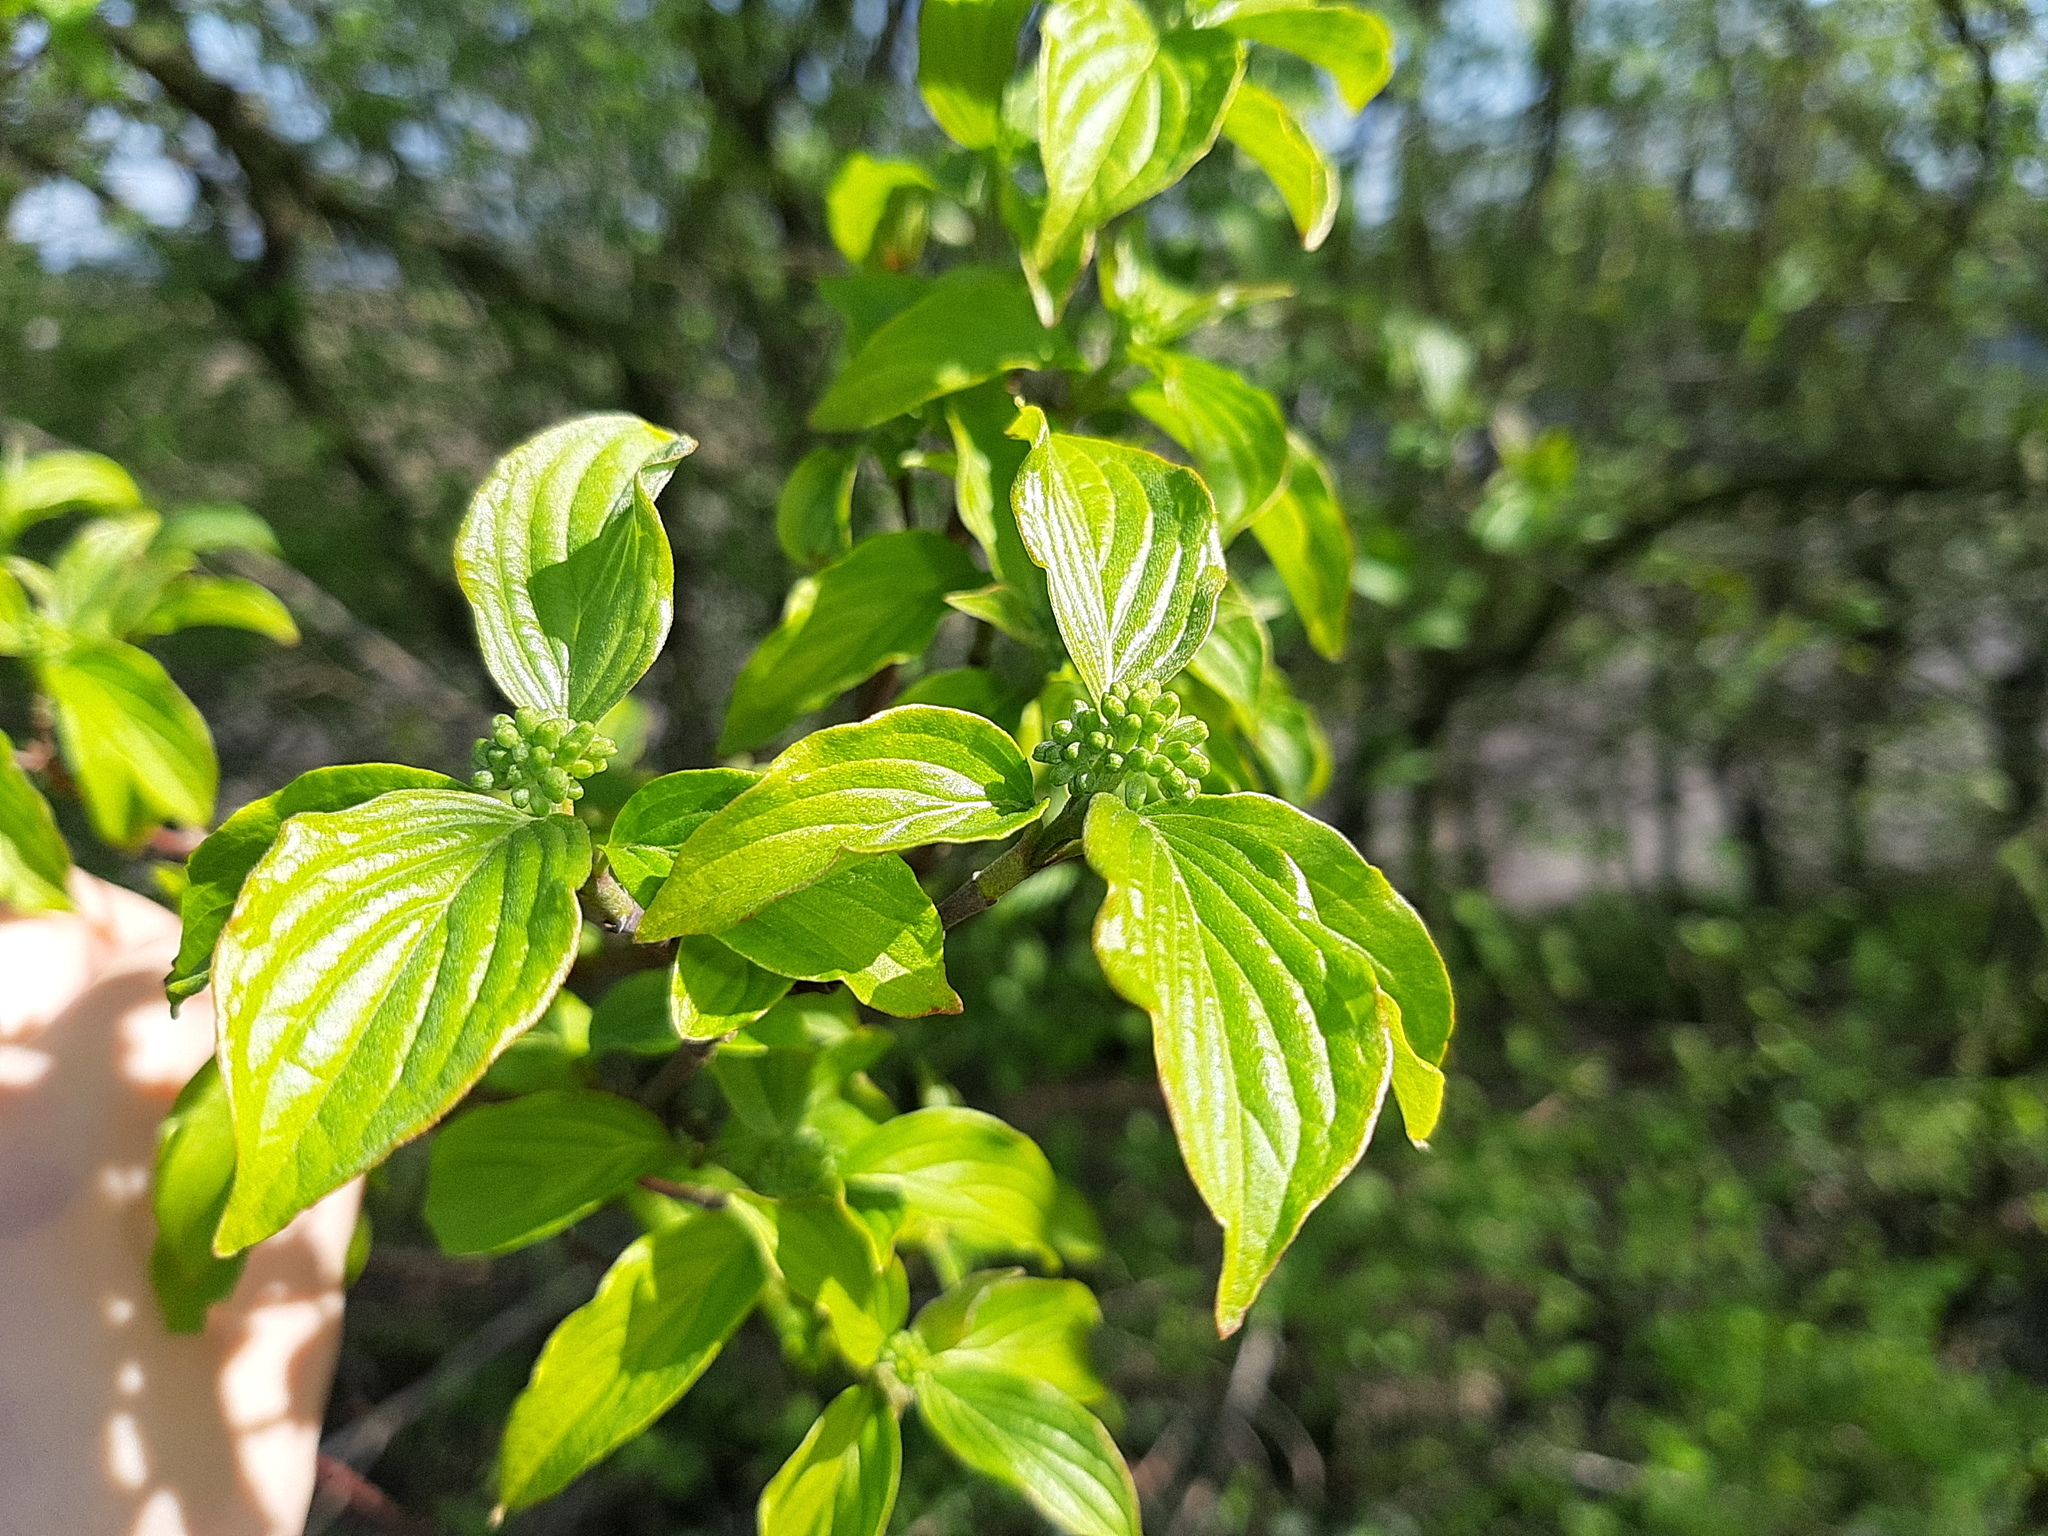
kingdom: Plantae
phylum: Tracheophyta
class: Magnoliopsida
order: Cornales
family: Cornaceae
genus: Cornus
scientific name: Cornus sanguinea
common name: Dogwood
